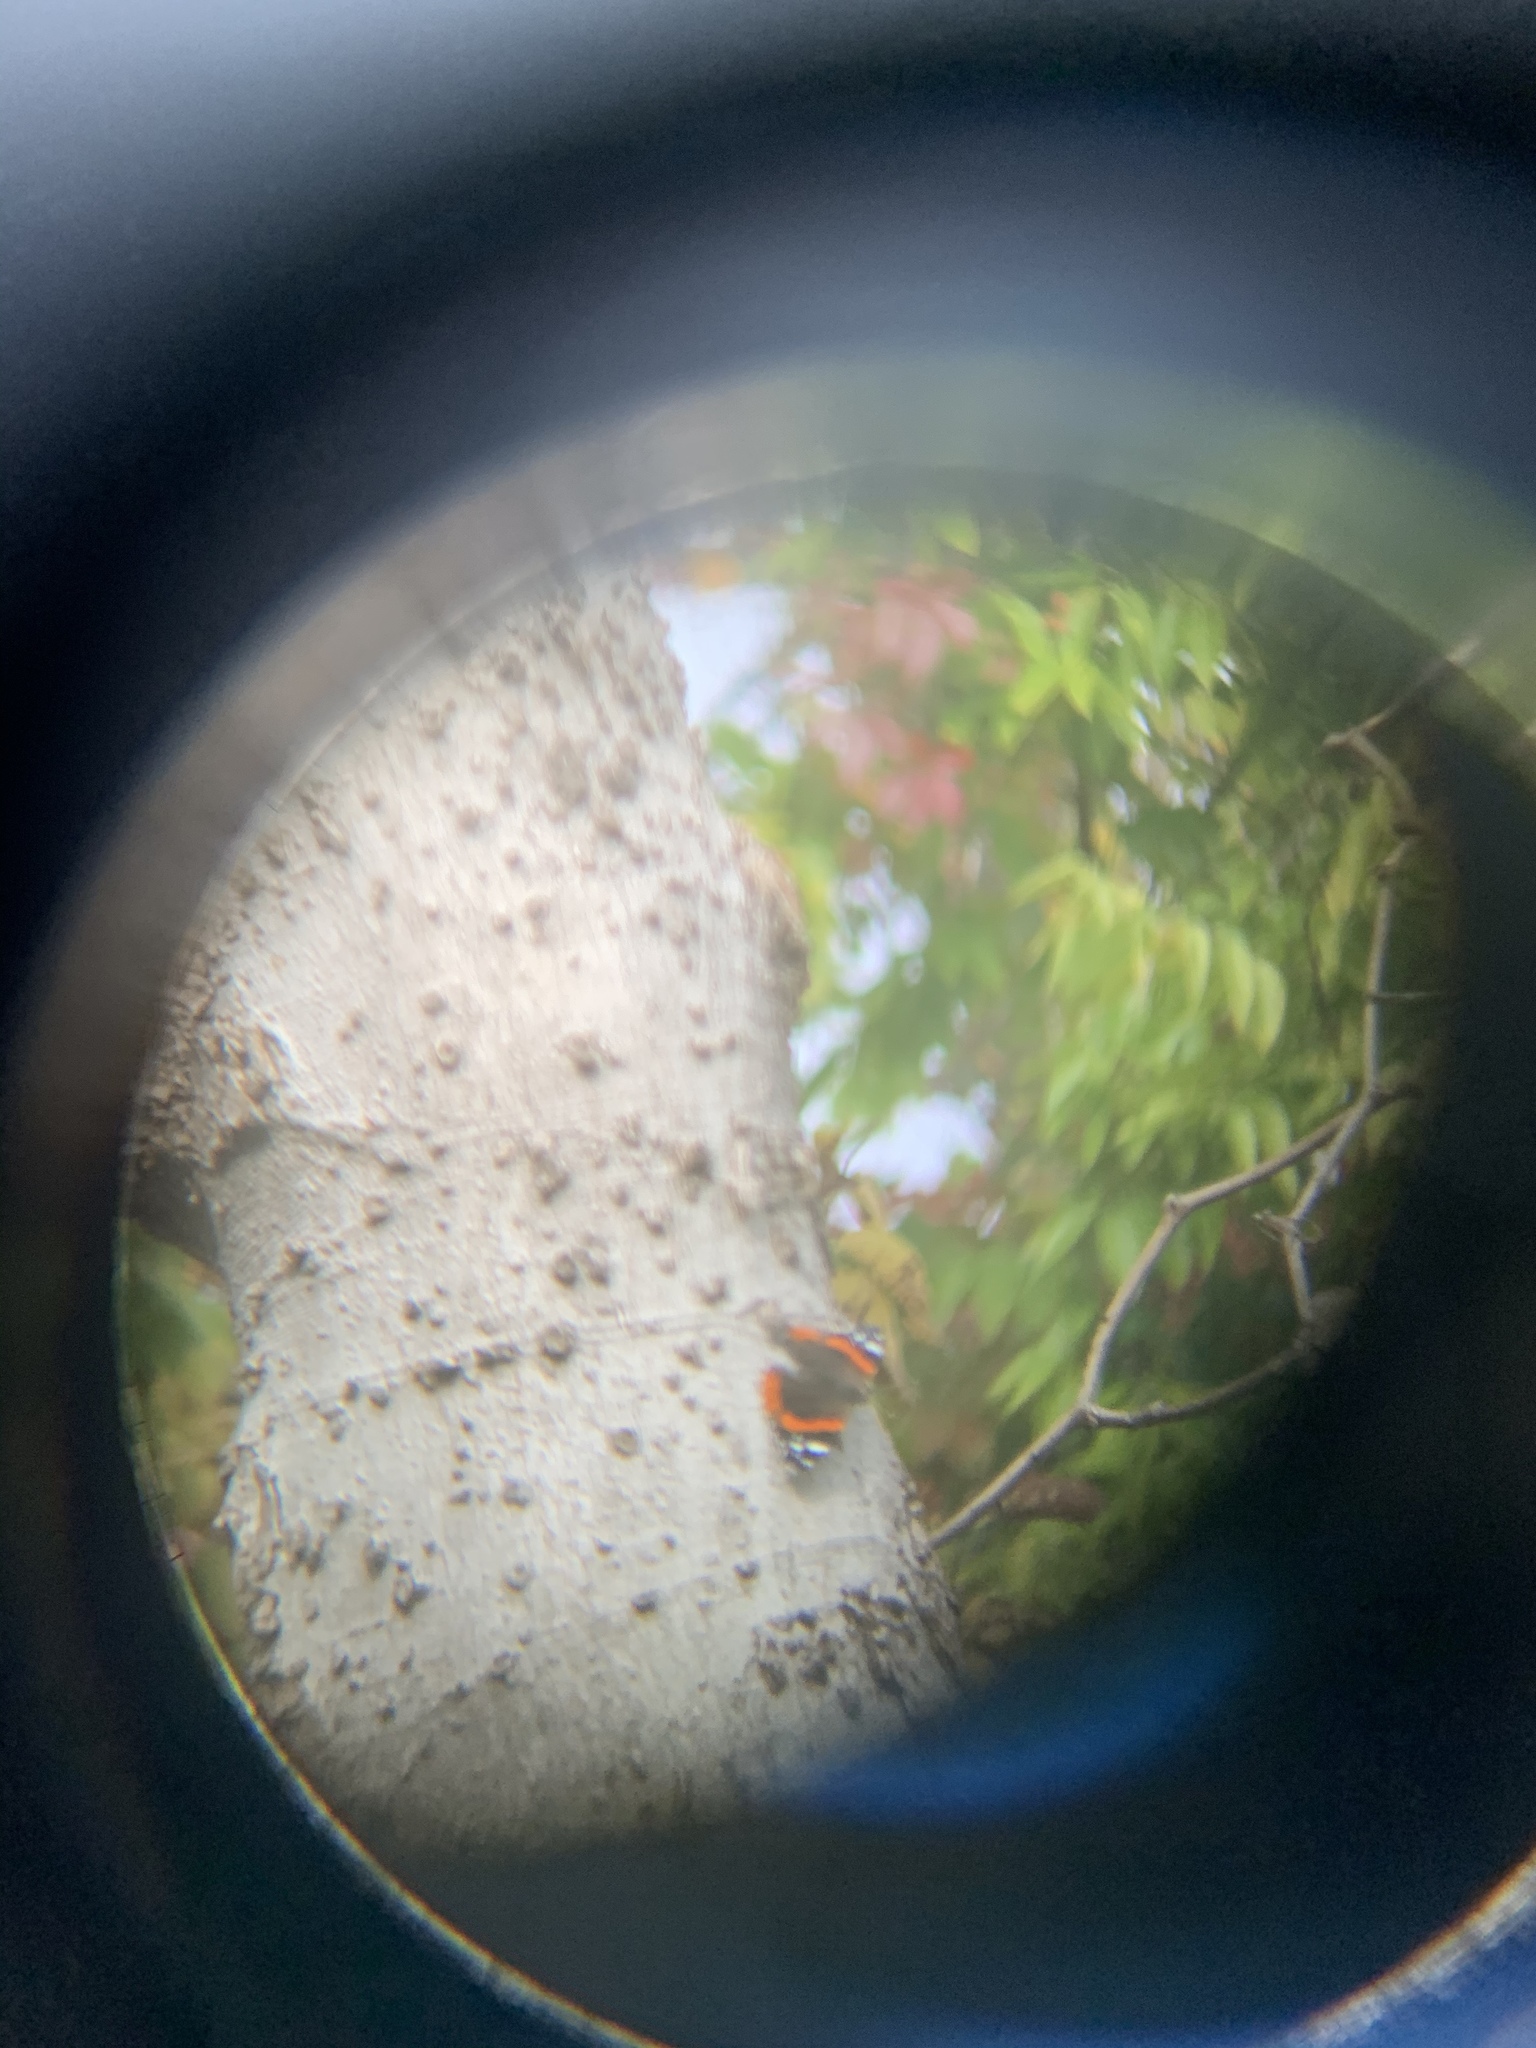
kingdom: Animalia
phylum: Arthropoda
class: Insecta
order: Lepidoptera
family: Nymphalidae
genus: Vanessa
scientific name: Vanessa atalanta
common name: Red admiral
